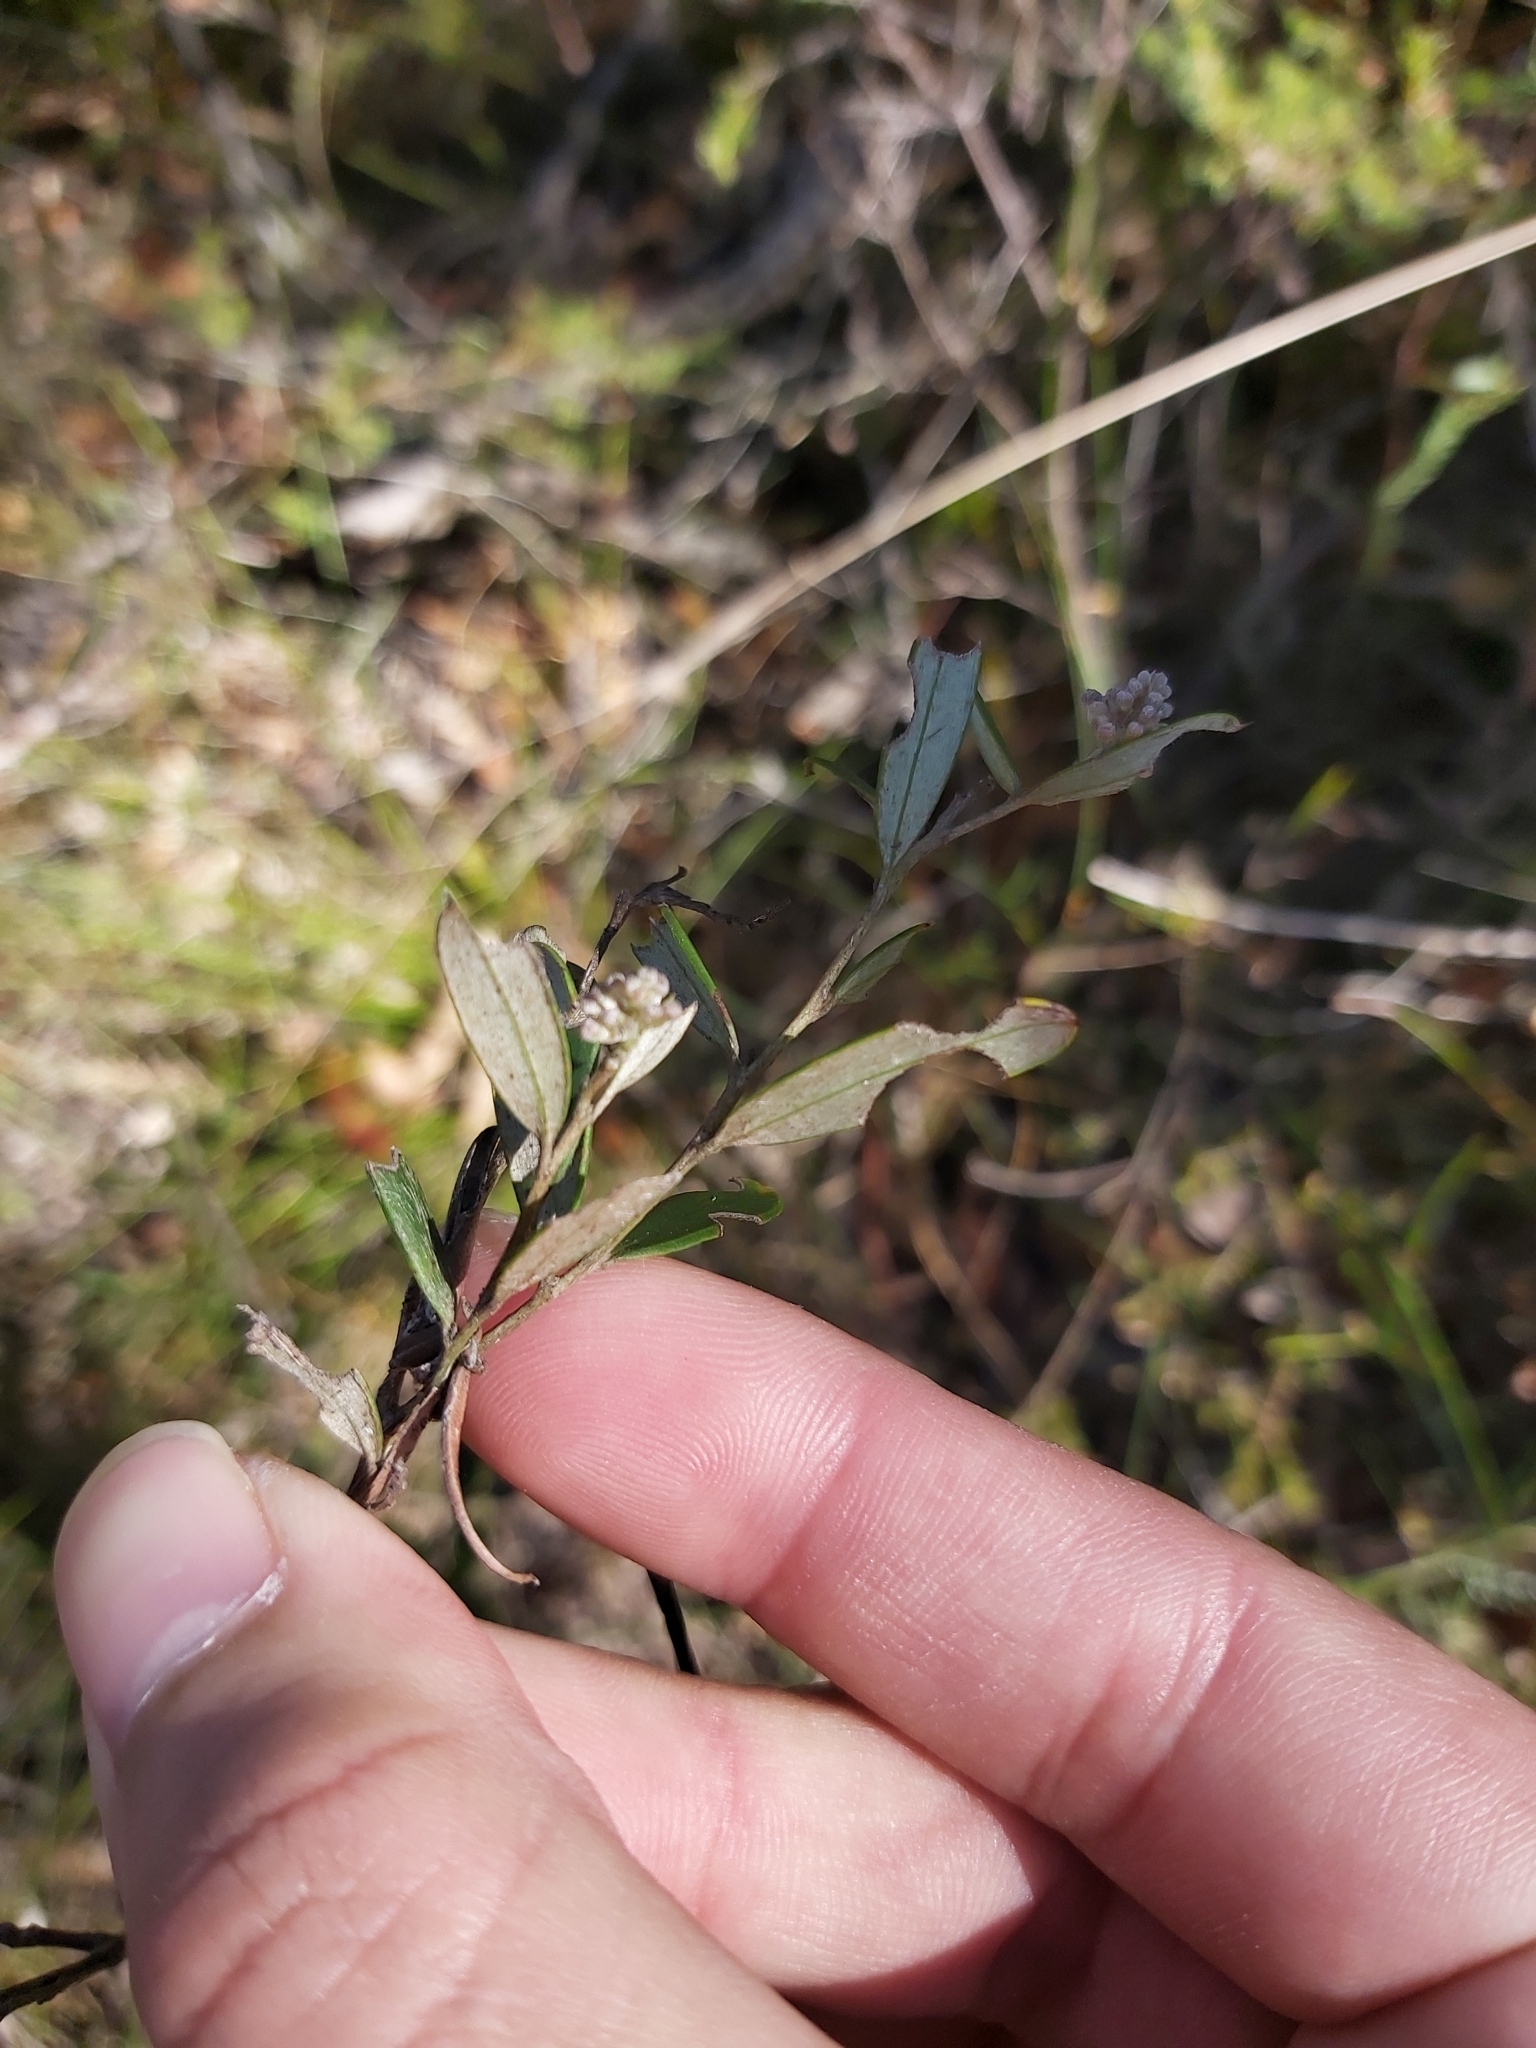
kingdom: Plantae
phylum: Tracheophyta
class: Magnoliopsida
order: Proteales
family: Proteaceae
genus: Grevillea
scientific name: Grevillea sericea
